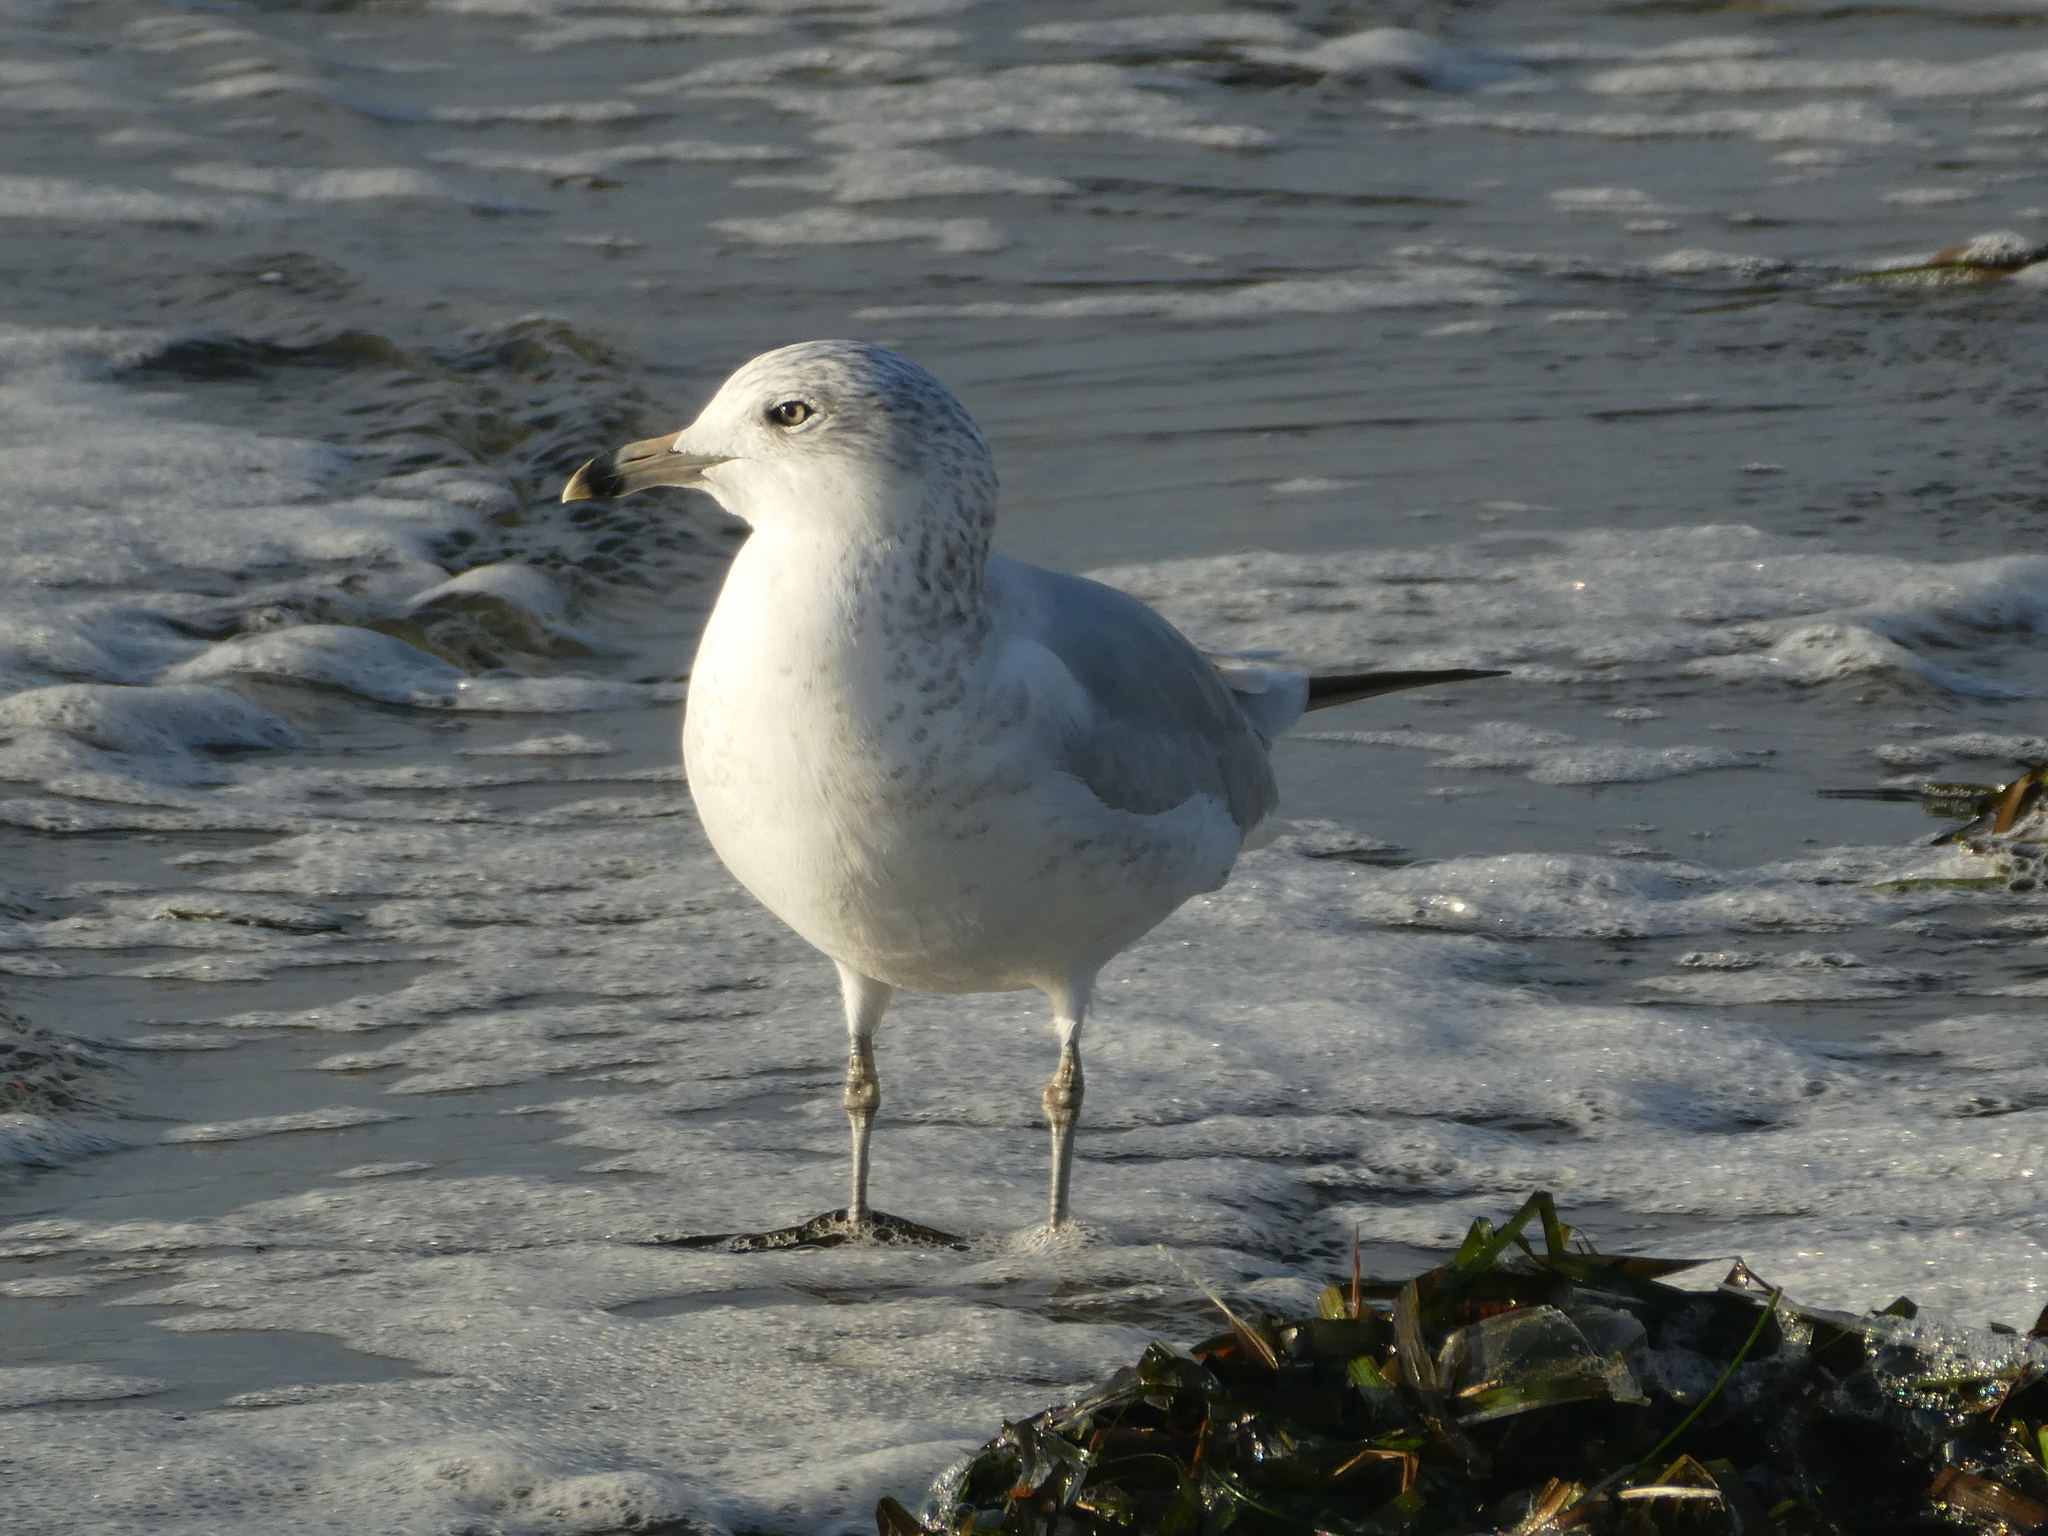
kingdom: Animalia
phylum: Chordata
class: Aves
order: Charadriiformes
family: Laridae
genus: Larus
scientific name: Larus delawarensis
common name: Ring-billed gull
